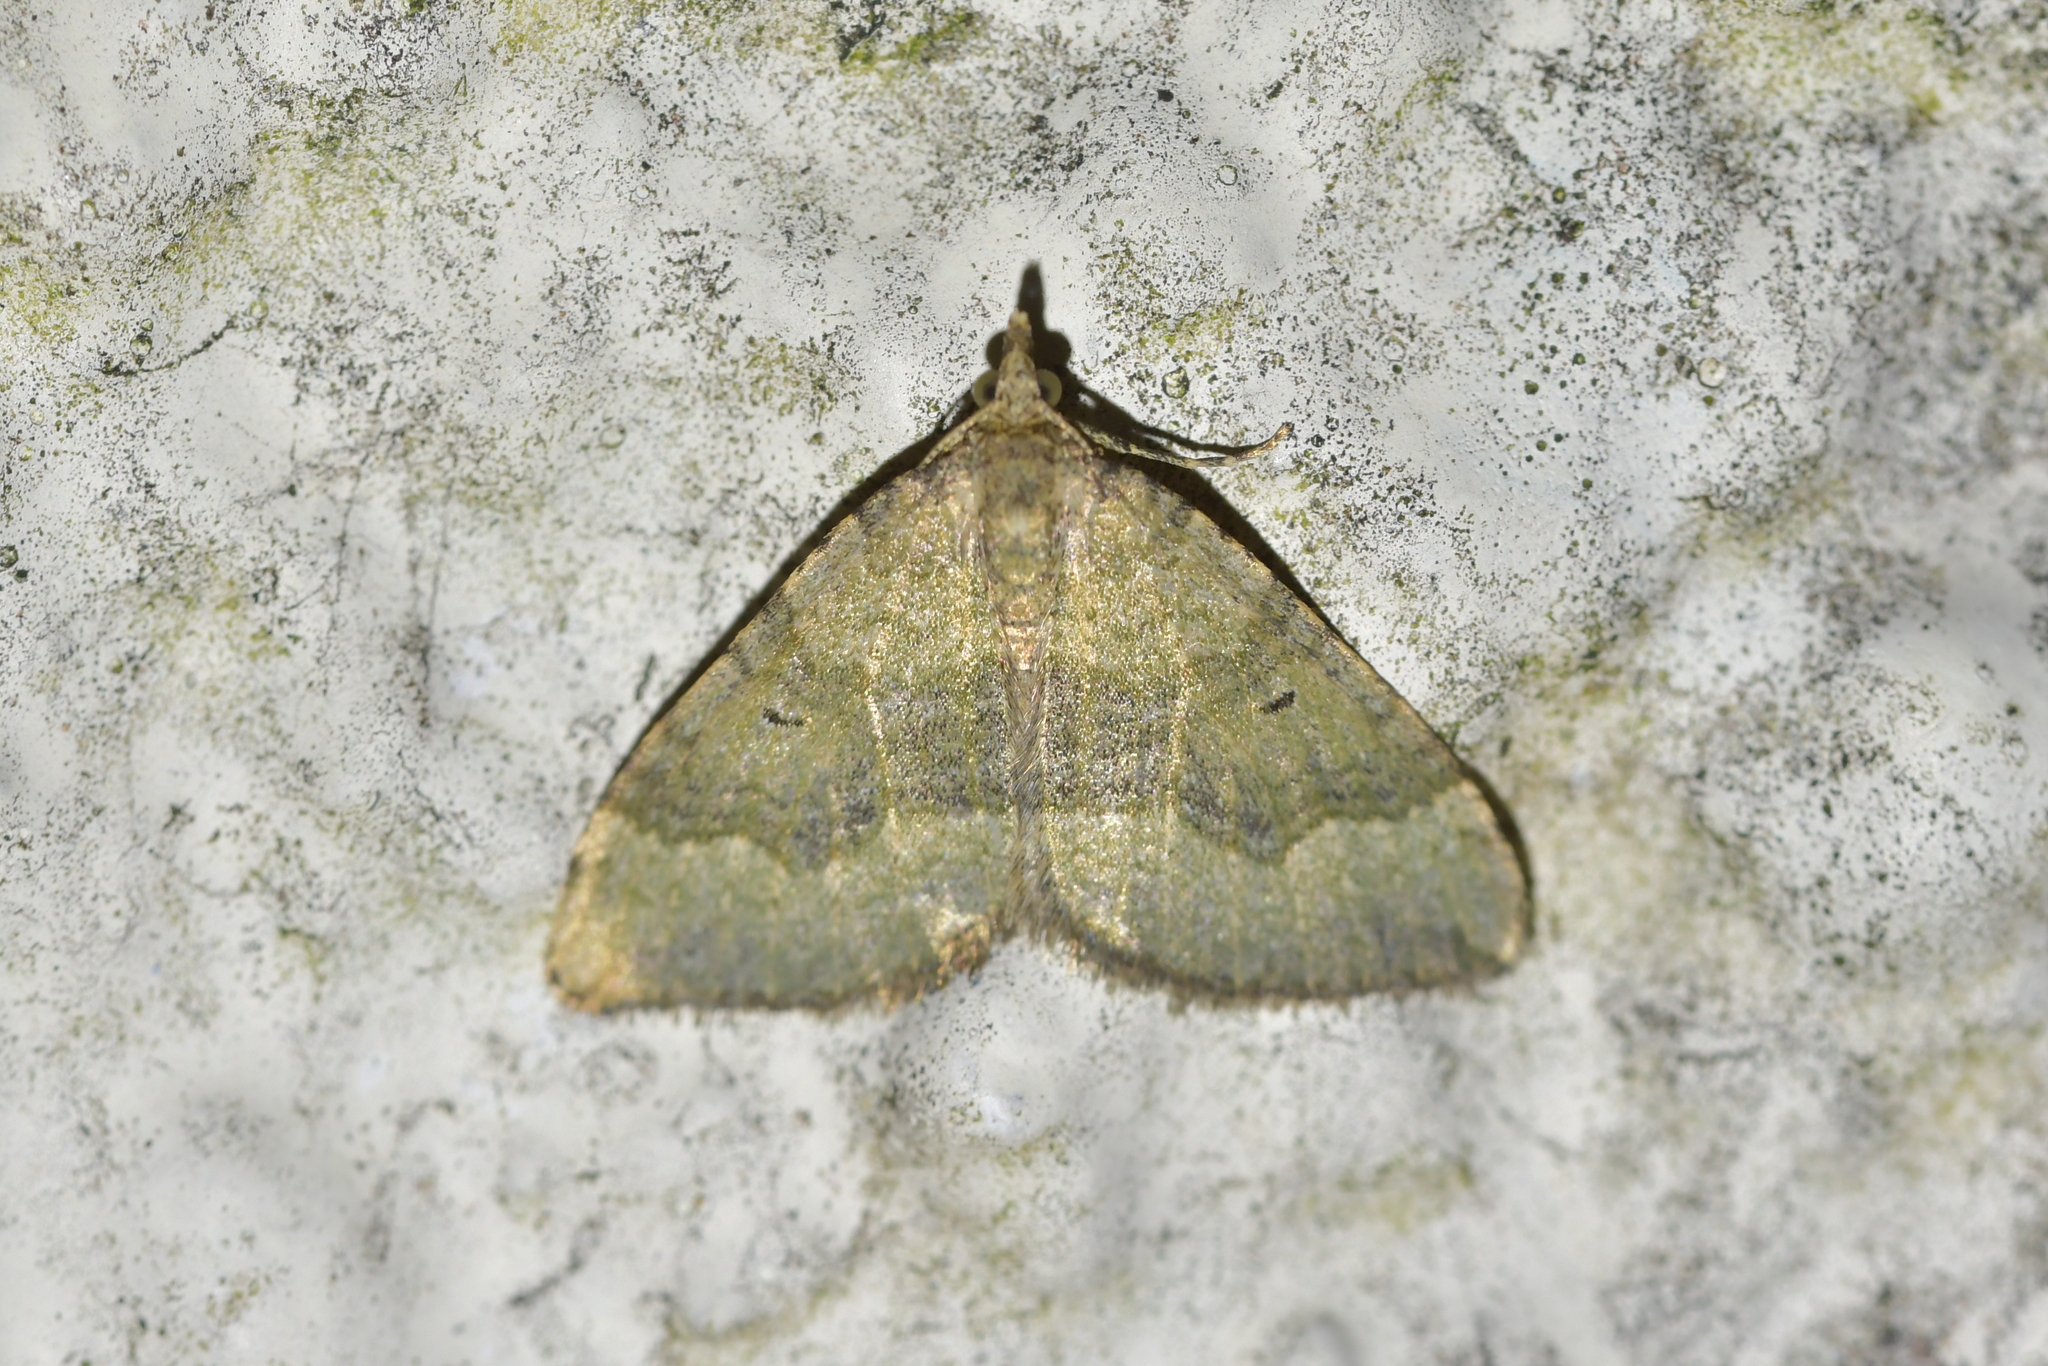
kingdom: Animalia
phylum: Arthropoda
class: Insecta
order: Lepidoptera
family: Geometridae
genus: Epyaxa
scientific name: Epyaxa rosearia
